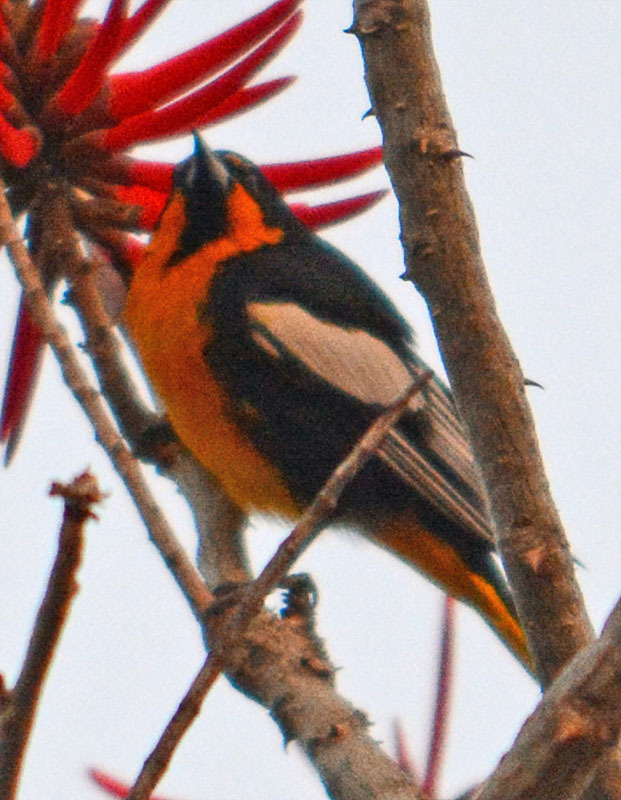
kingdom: Animalia
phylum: Chordata
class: Aves
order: Passeriformes
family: Icteridae
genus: Icterus
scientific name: Icterus abeillei
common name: Black-backed oriole
